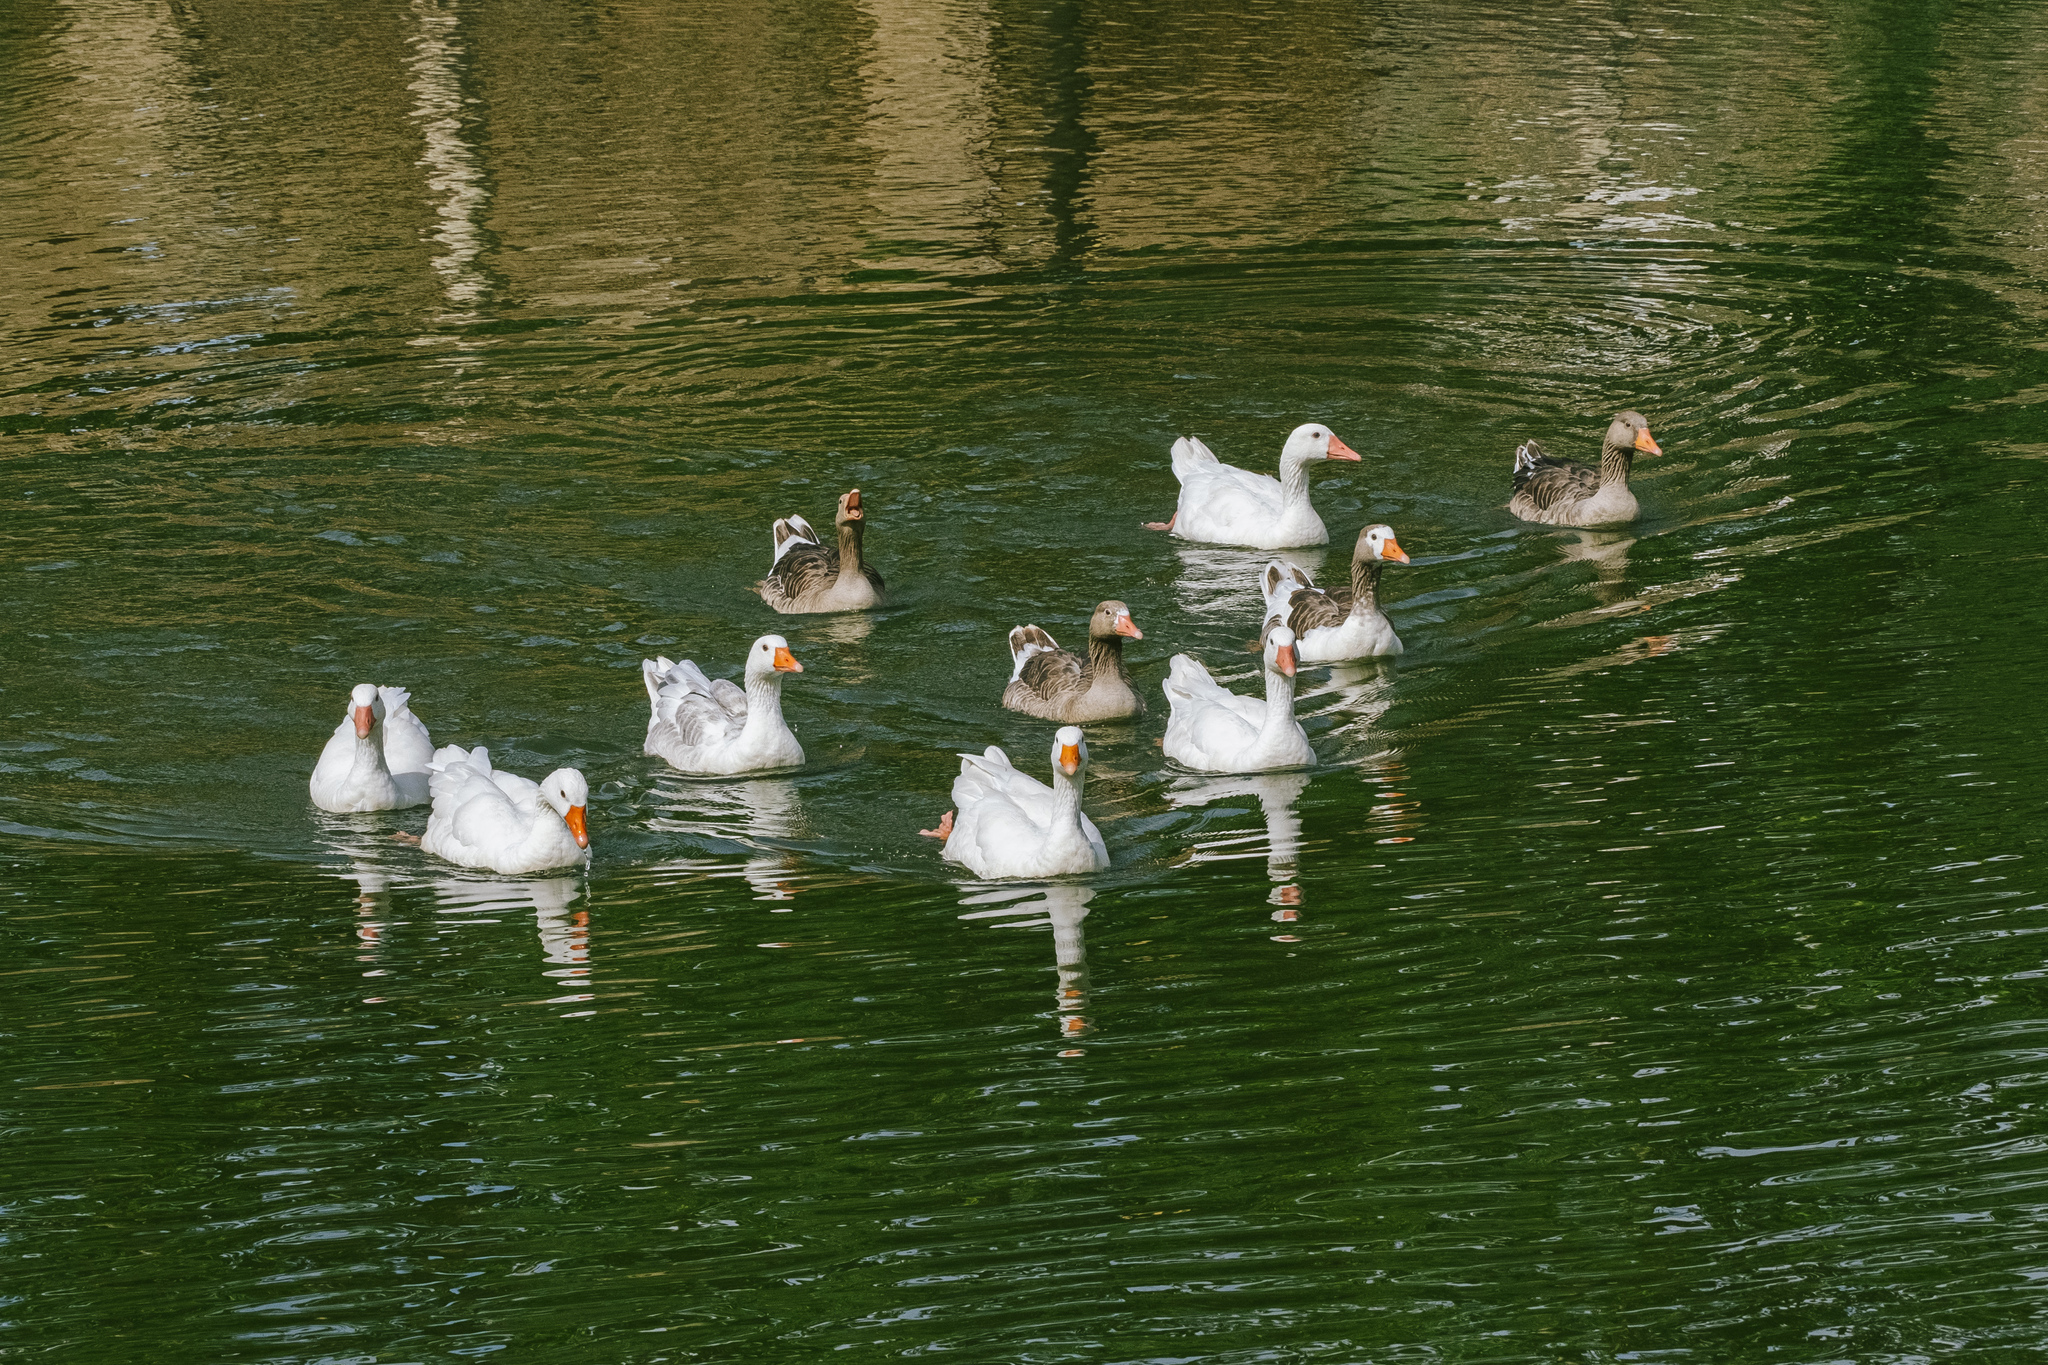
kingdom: Animalia
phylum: Chordata
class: Aves
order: Anseriformes
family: Anatidae
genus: Anser
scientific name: Anser anser
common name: Greylag goose
